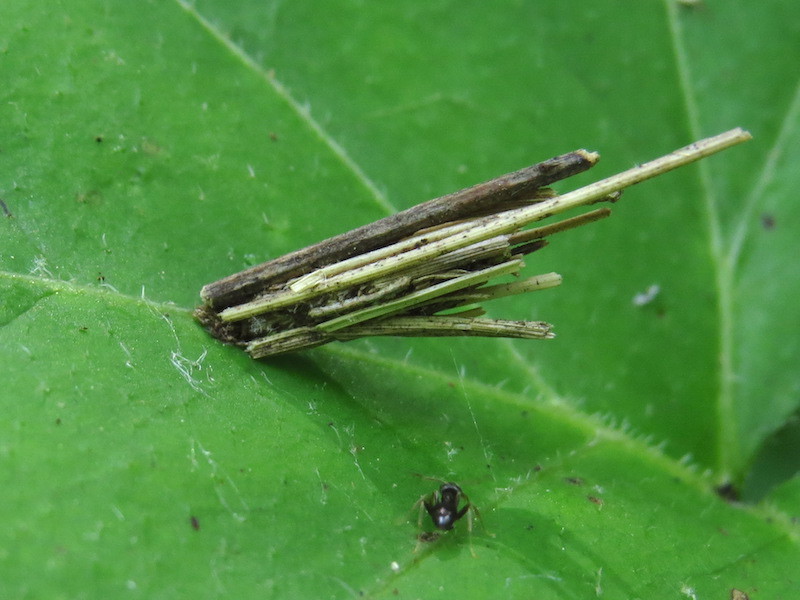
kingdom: Animalia
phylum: Arthropoda
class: Insecta
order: Lepidoptera
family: Psychidae
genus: Psyche
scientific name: Psyche casta
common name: Common sweep
